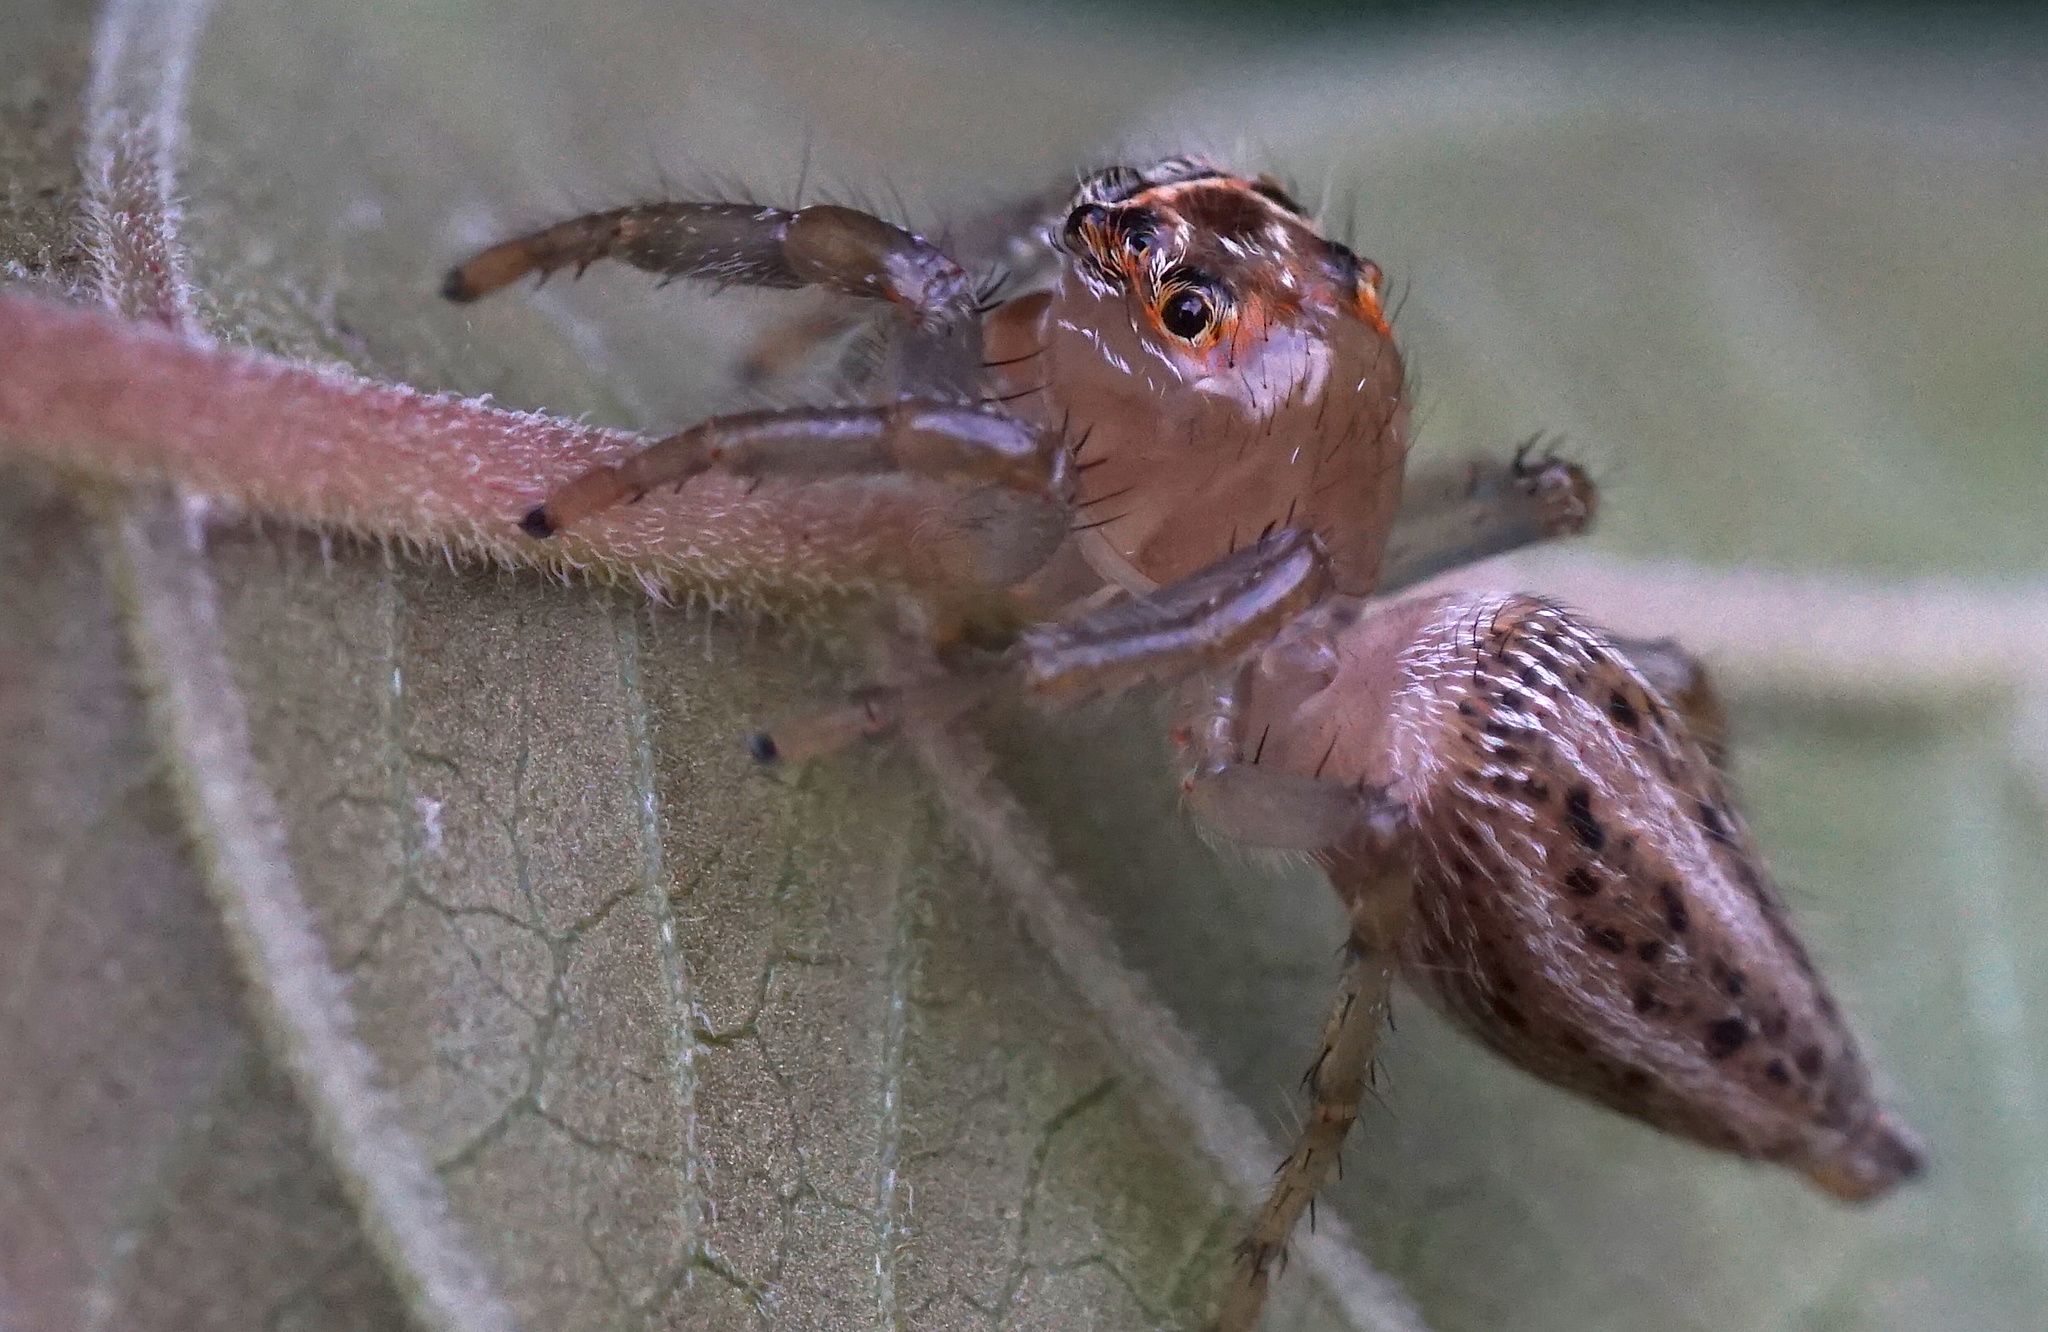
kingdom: Animalia
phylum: Arthropoda
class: Arachnida
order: Araneae
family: Salticidae
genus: Colonus
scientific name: Colonus sylvanus
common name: Jumping spiders
